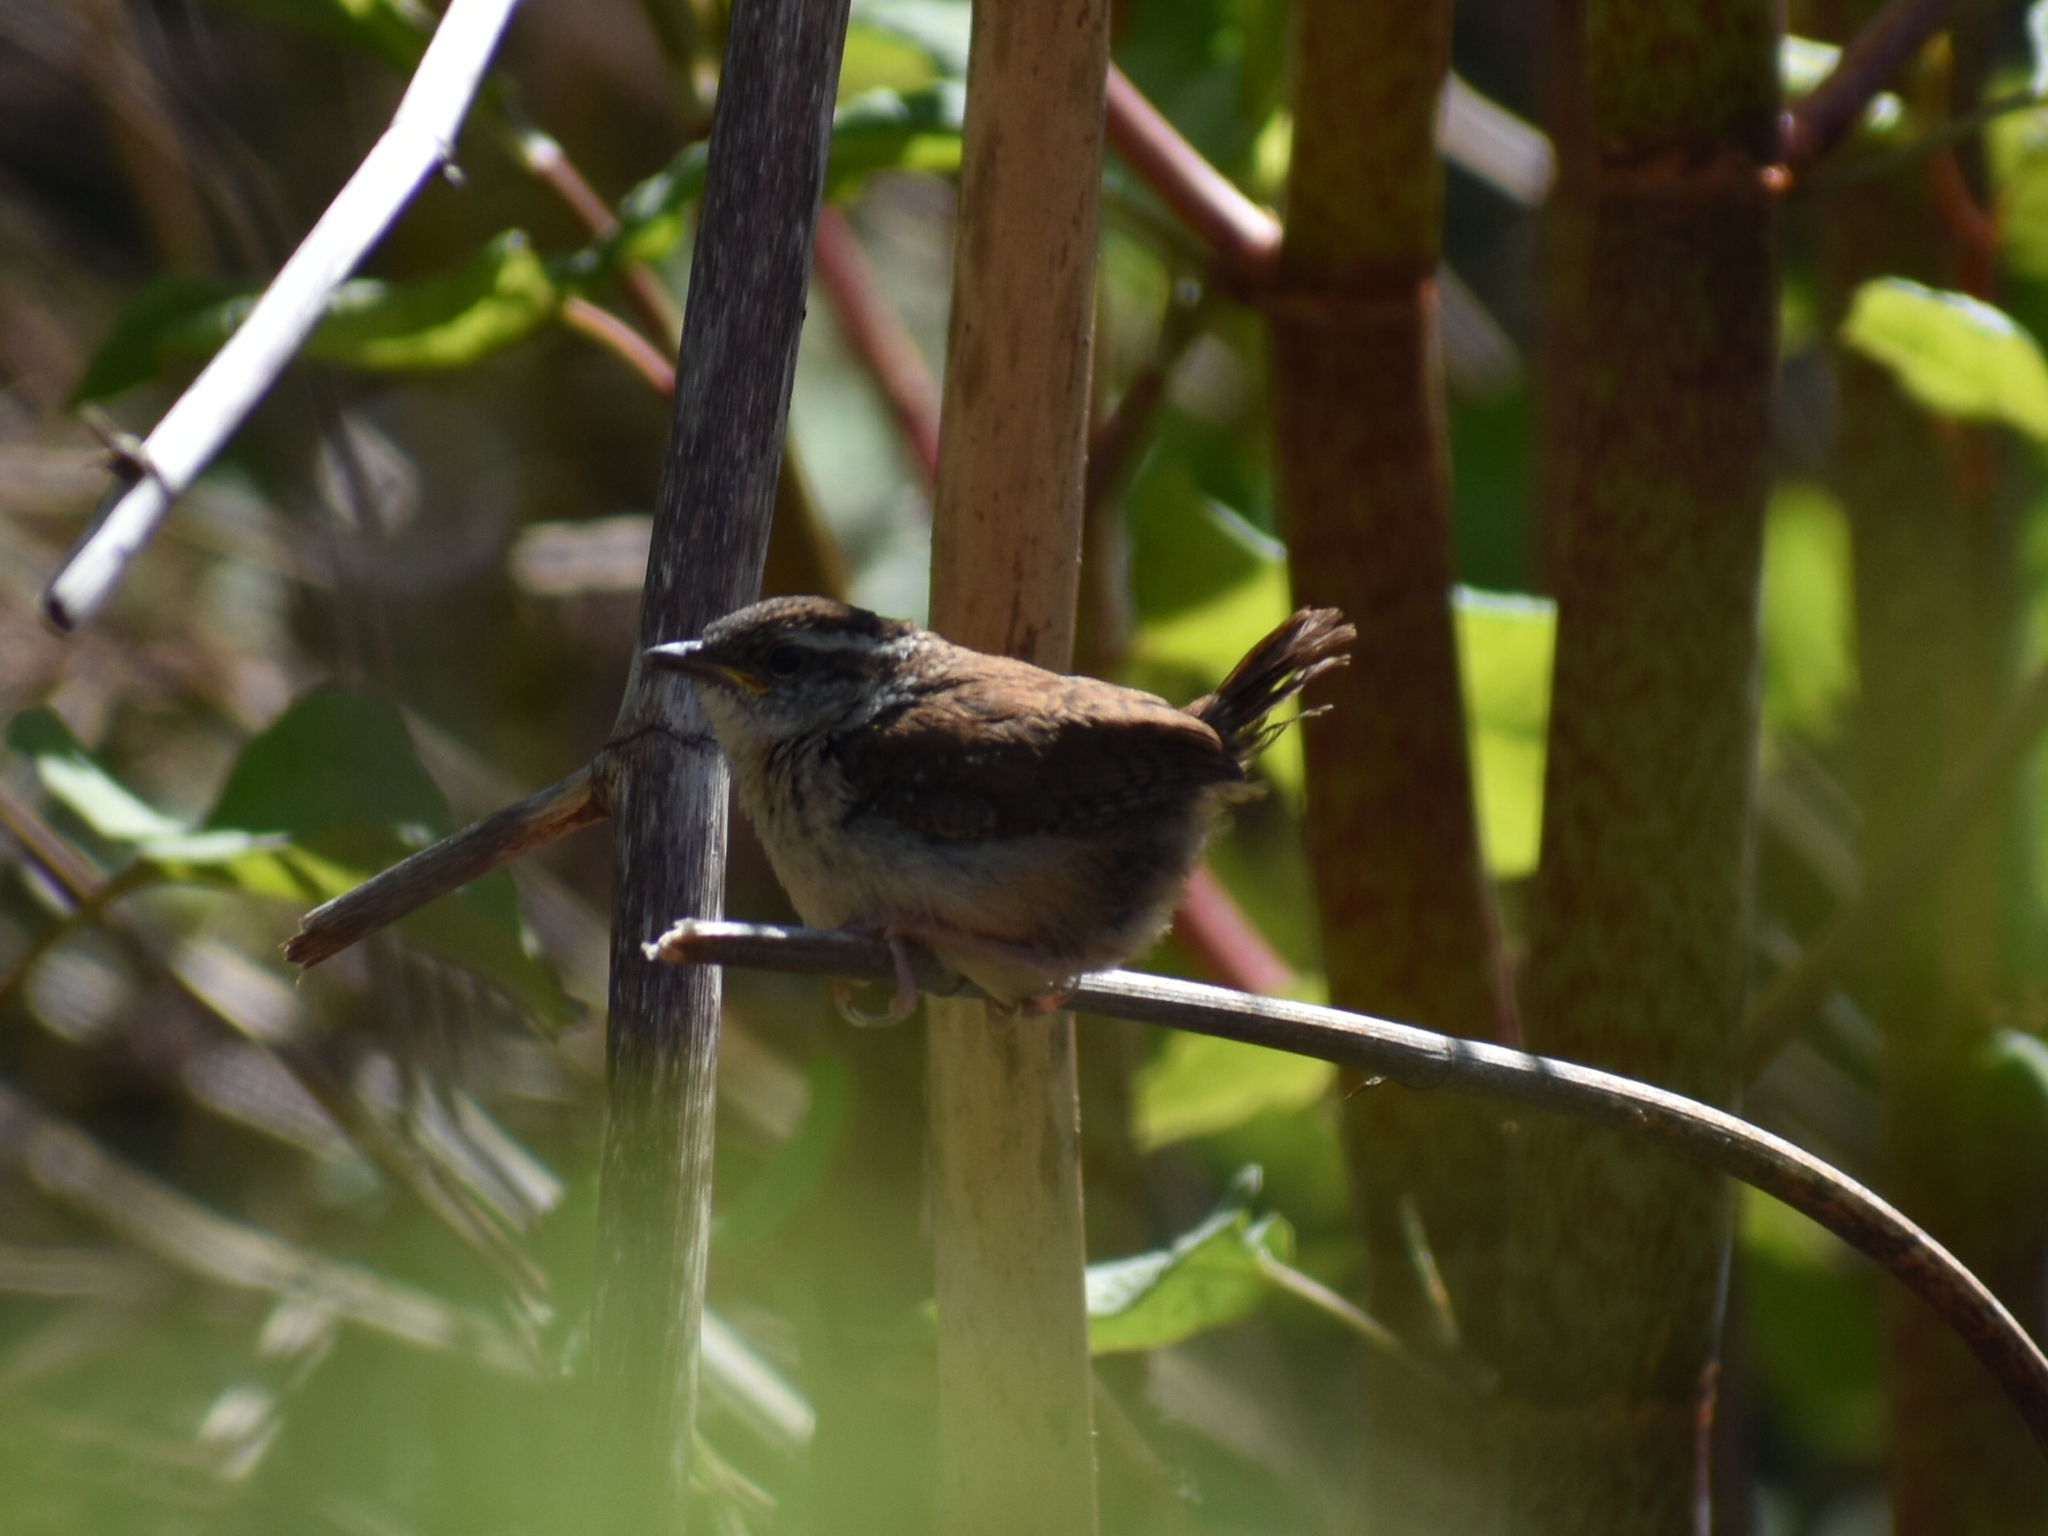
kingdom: Animalia
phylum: Chordata
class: Aves
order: Passeriformes
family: Troglodytidae
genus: Thryothorus
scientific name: Thryothorus ludovicianus
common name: Carolina wren
